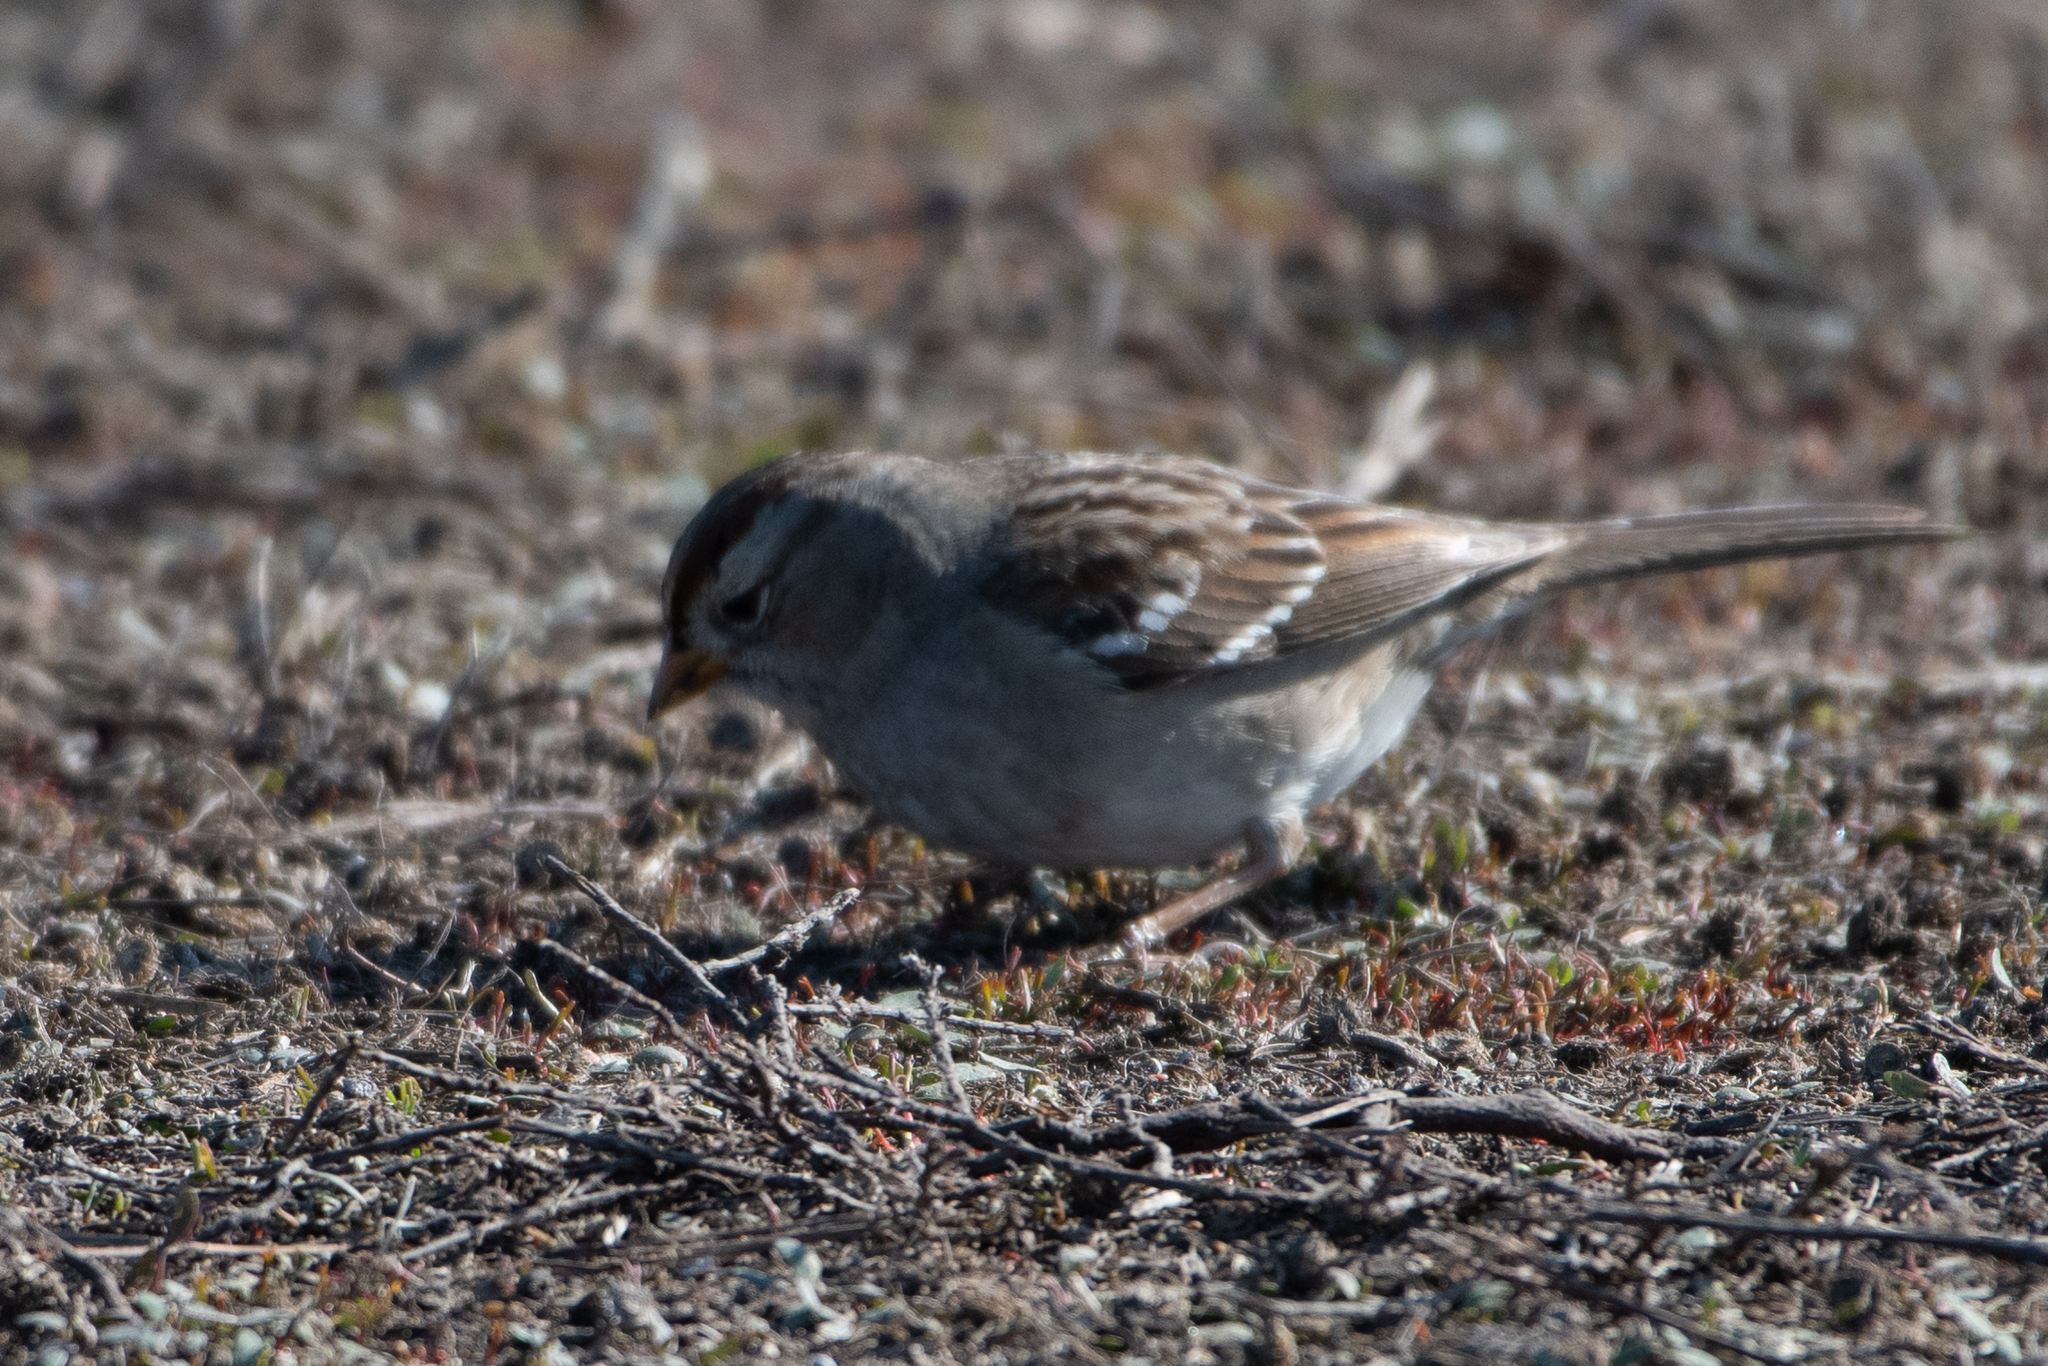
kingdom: Animalia
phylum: Chordata
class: Aves
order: Passeriformes
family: Passerellidae
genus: Zonotrichia
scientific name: Zonotrichia leucophrys
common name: White-crowned sparrow
